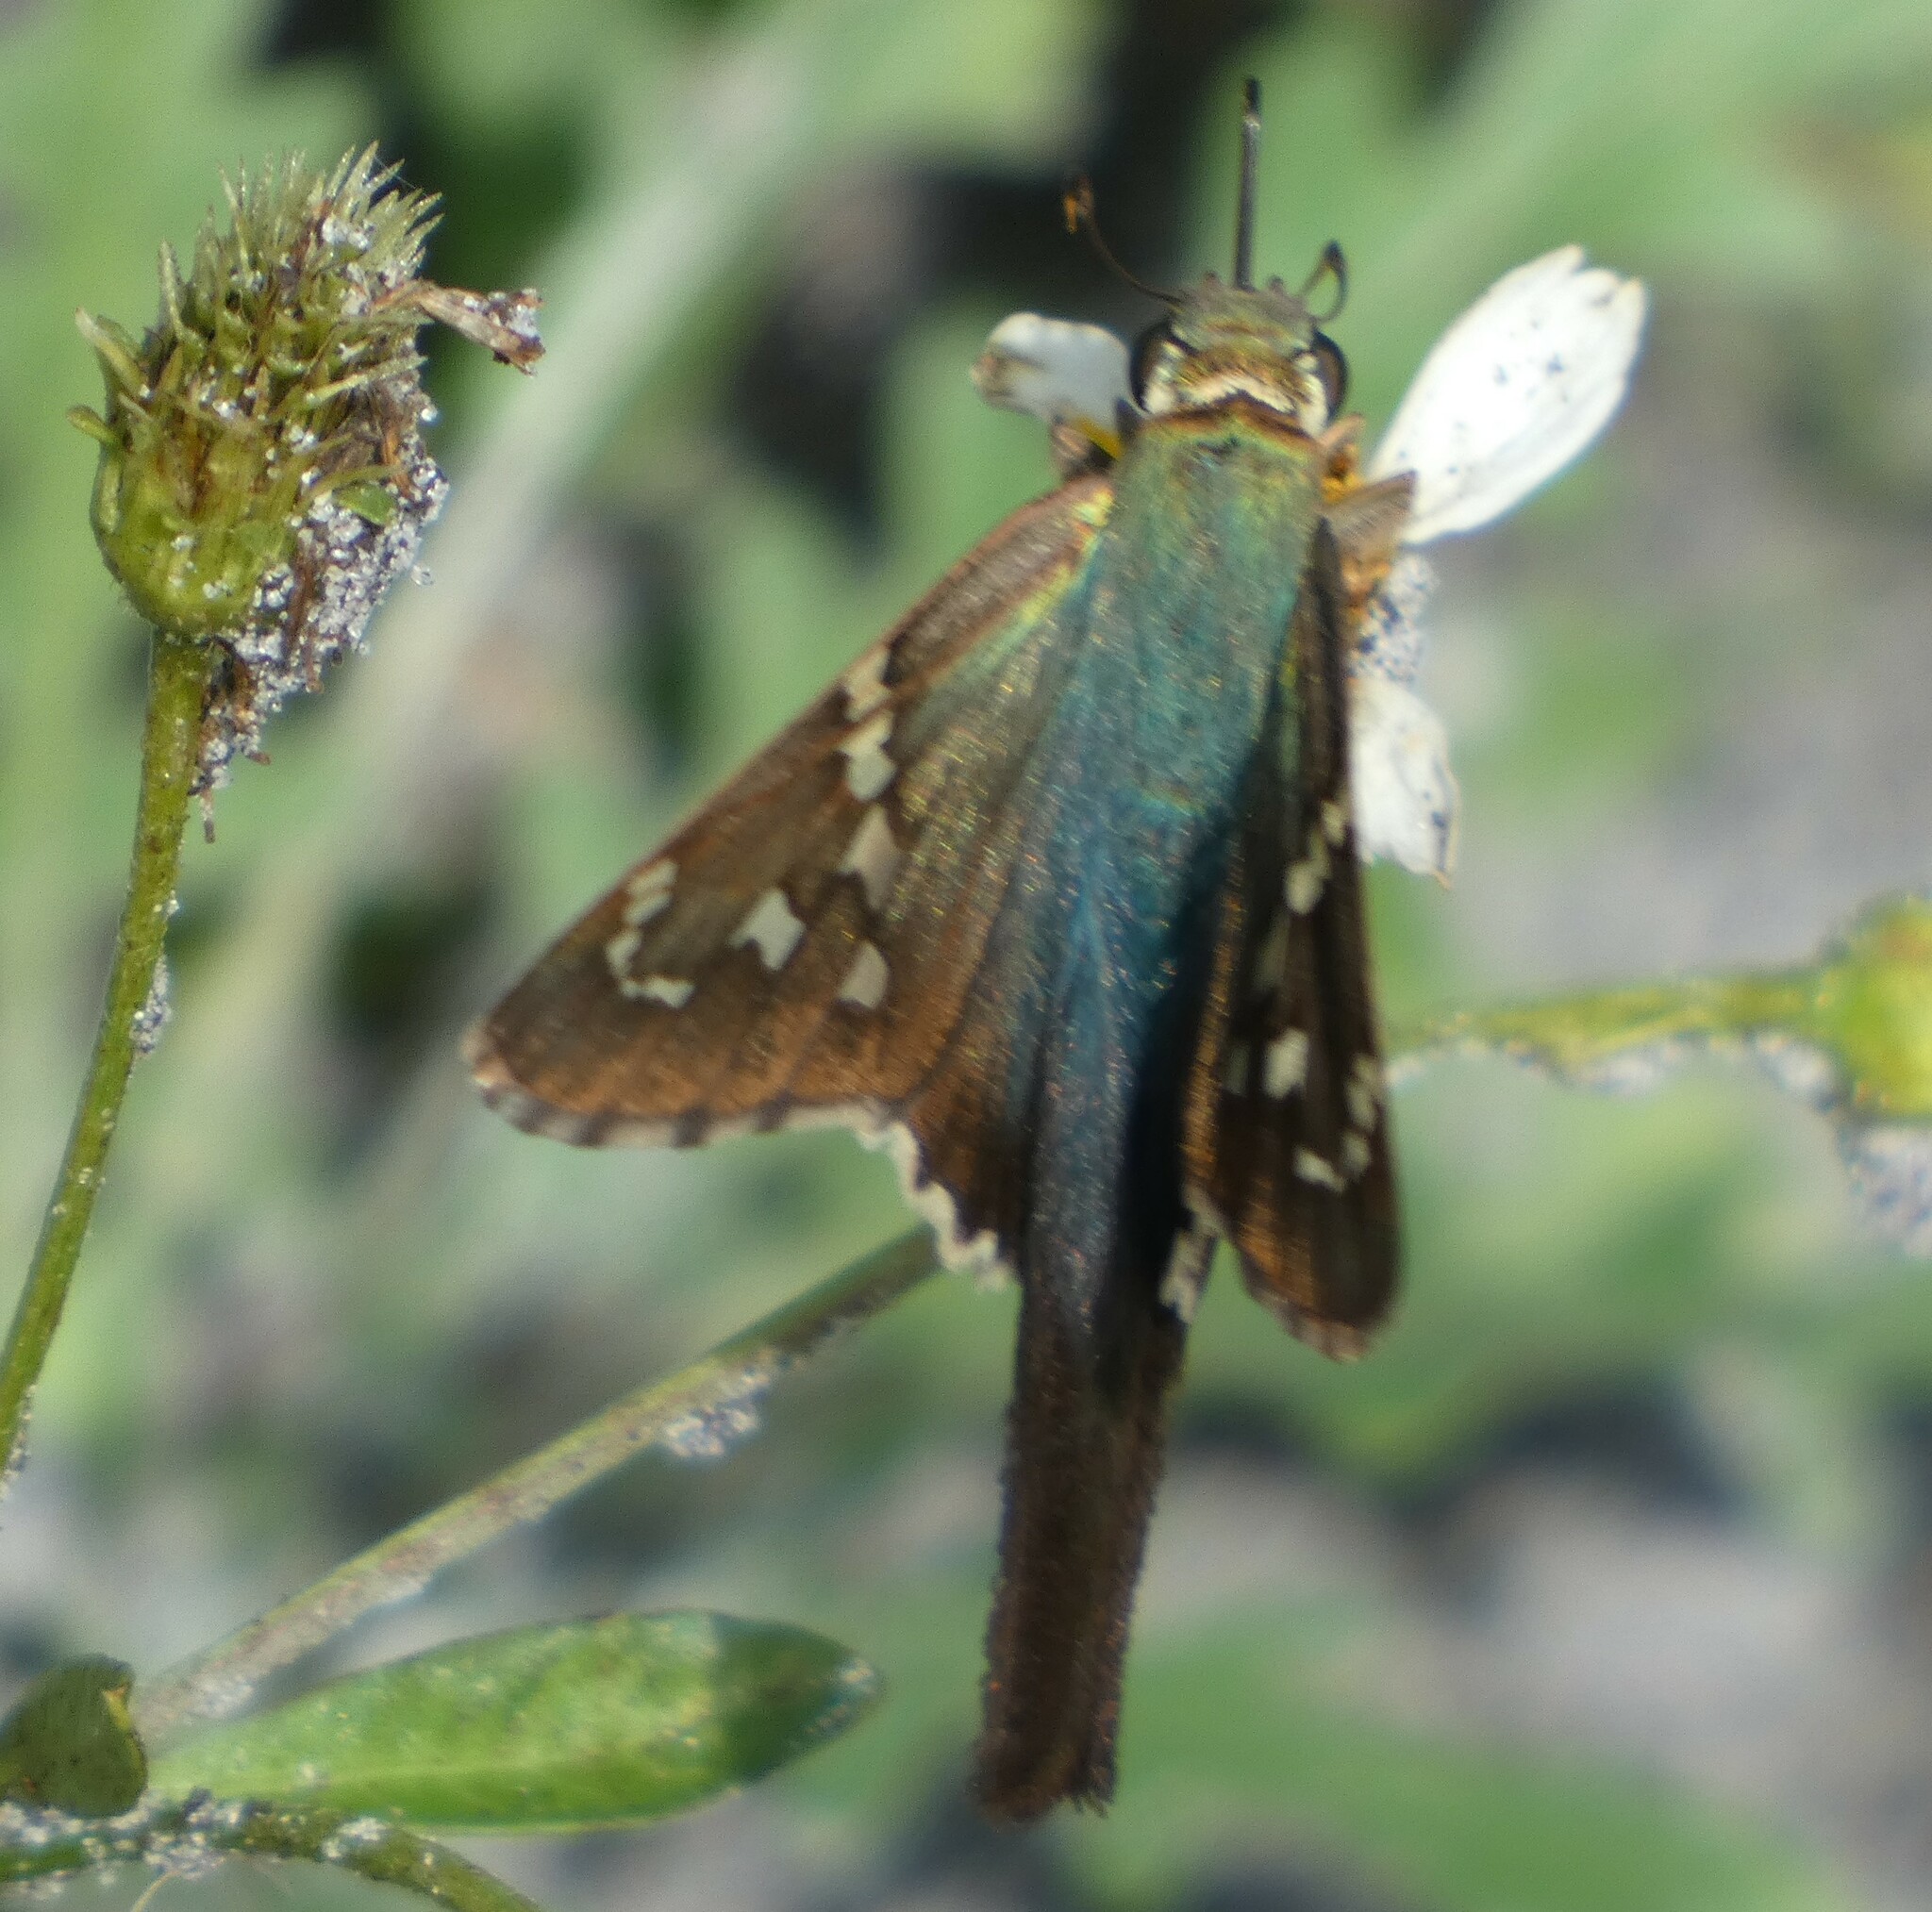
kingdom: Animalia
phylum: Arthropoda
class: Insecta
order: Lepidoptera
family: Hesperiidae
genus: Urbanus
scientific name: Urbanus proteus
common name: Long-tailed skipper
